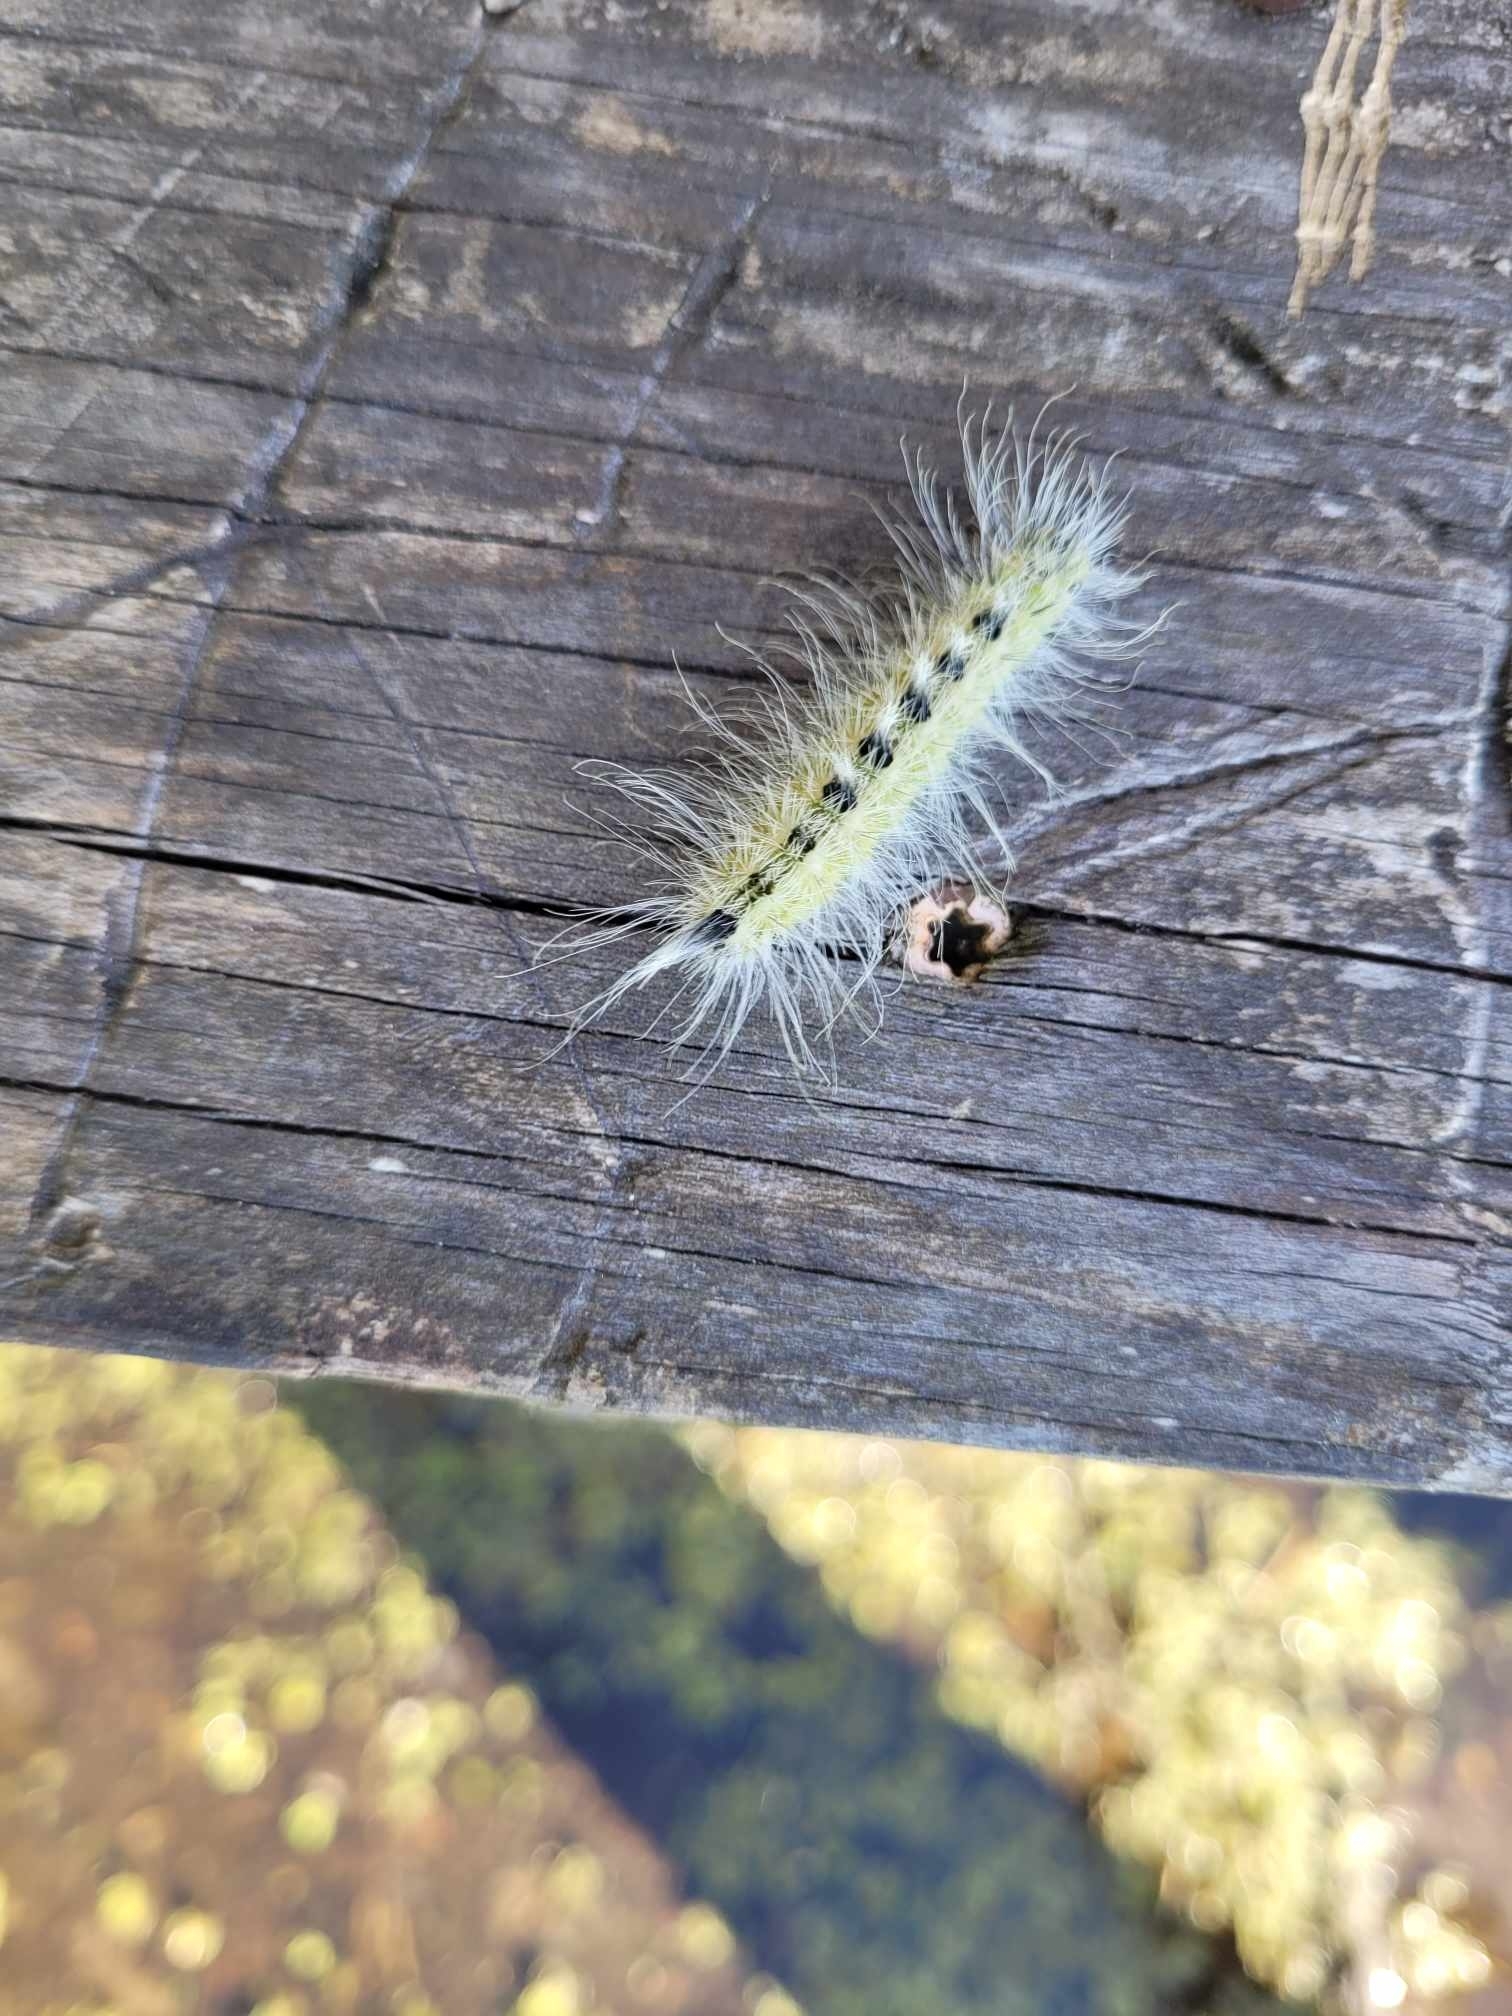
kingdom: Animalia
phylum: Arthropoda
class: Insecta
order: Lepidoptera
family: Noctuidae
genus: Acronicta
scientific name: Acronicta rubricoma
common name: Hackberry dagger
